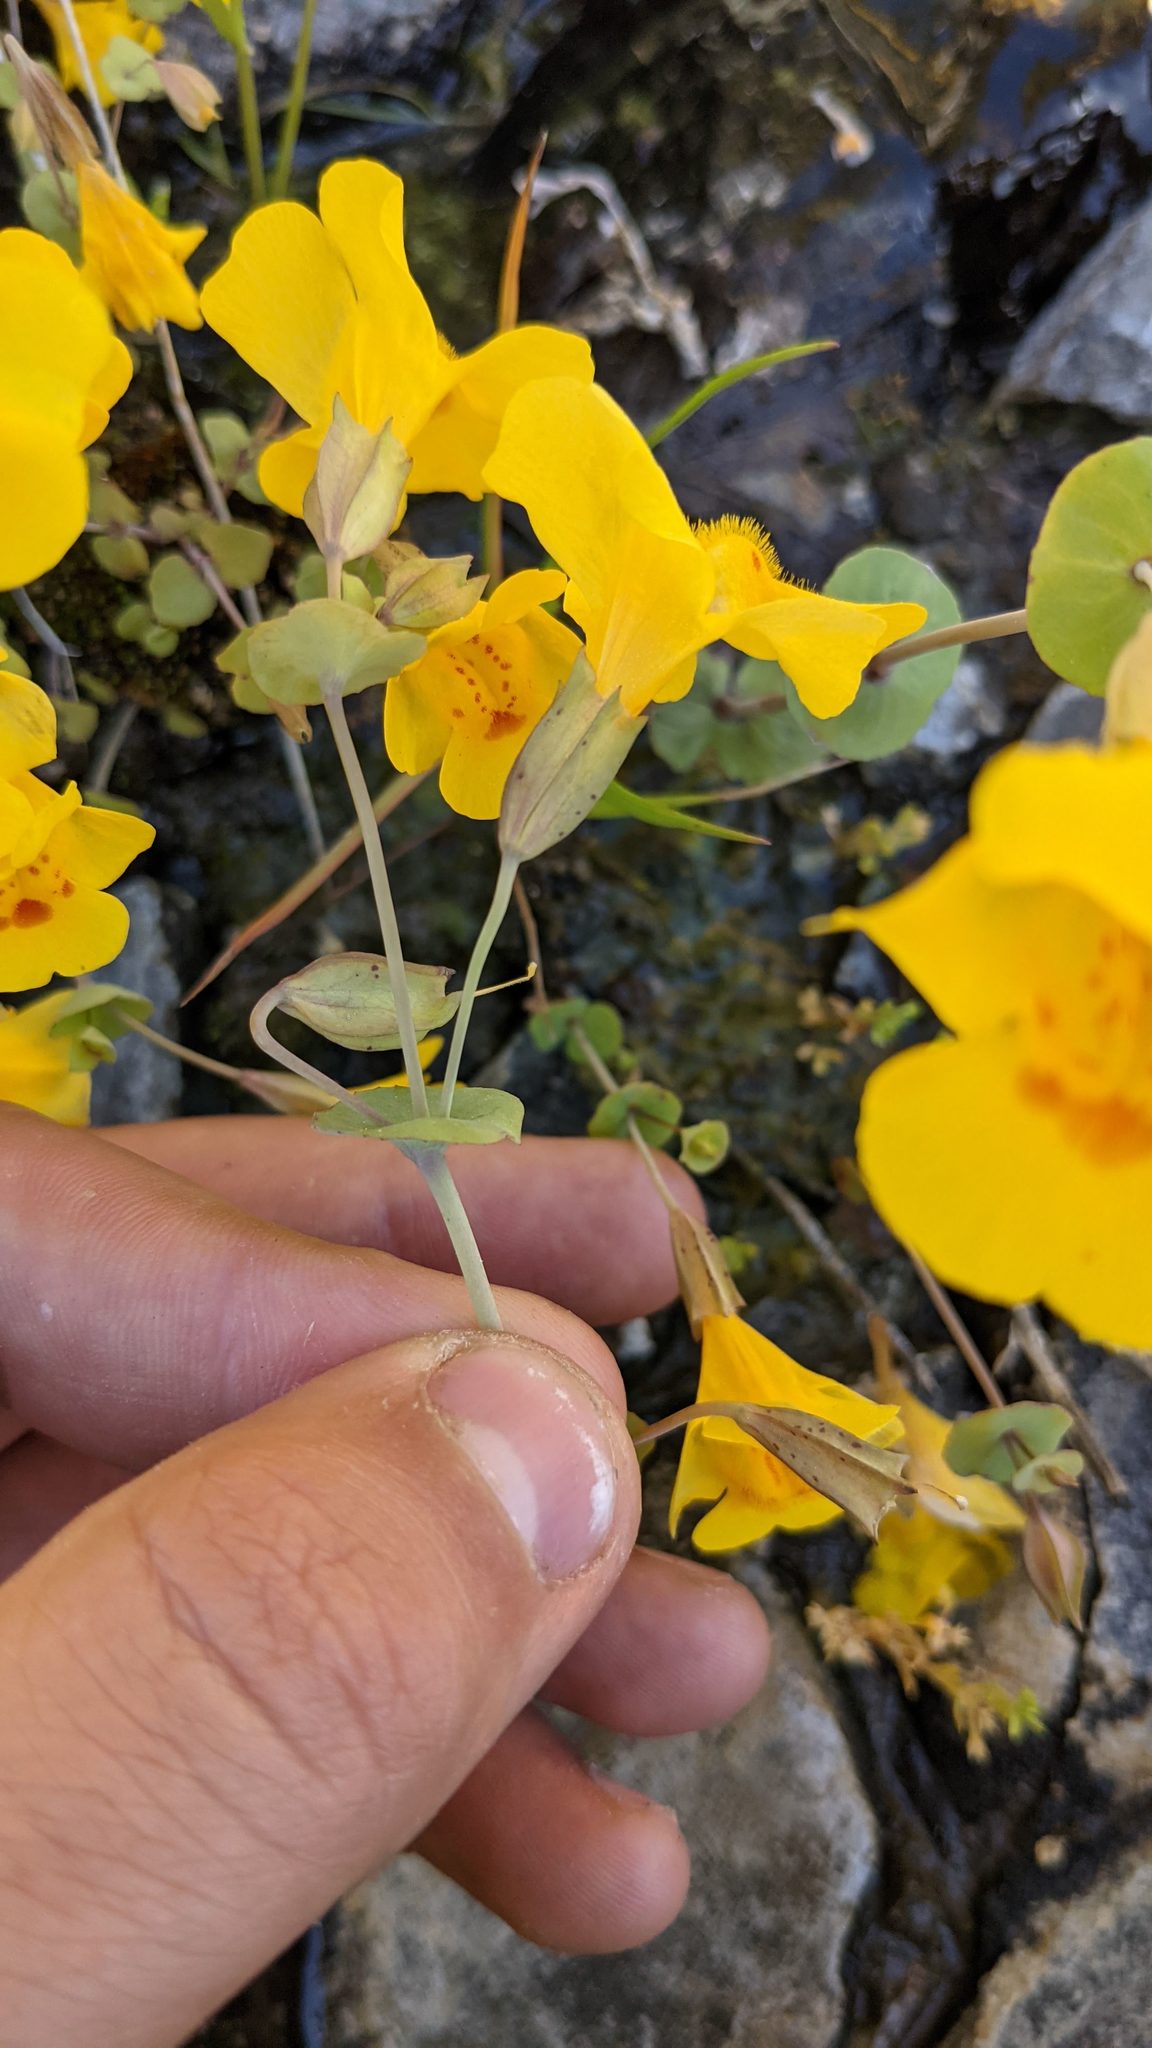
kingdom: Plantae
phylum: Tracheophyta
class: Magnoliopsida
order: Lamiales
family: Phrymaceae
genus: Erythranthe
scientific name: Erythranthe glaucescens
